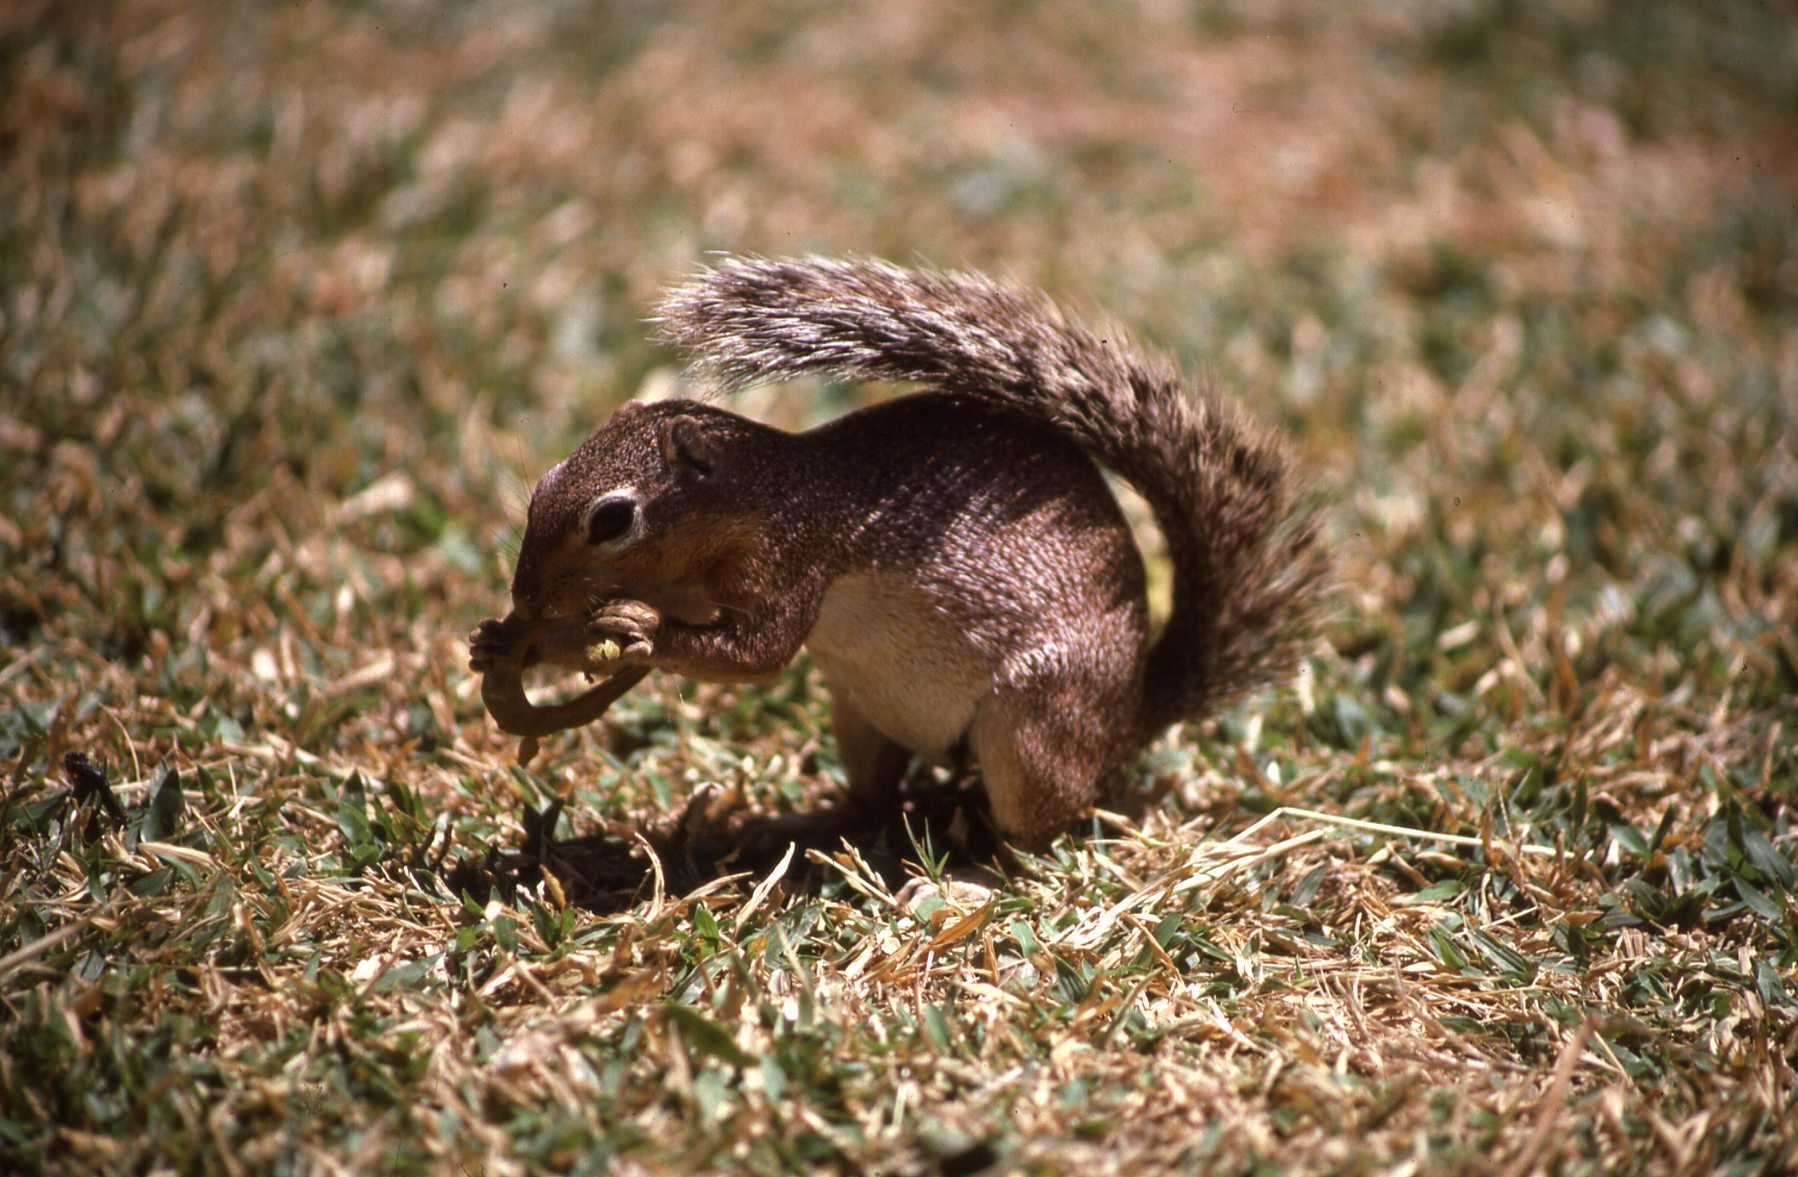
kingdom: Animalia
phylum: Chordata
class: Mammalia
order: Rodentia
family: Sciuridae
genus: Xerus
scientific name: Xerus rutilus
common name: Unstriped ground squirrel
